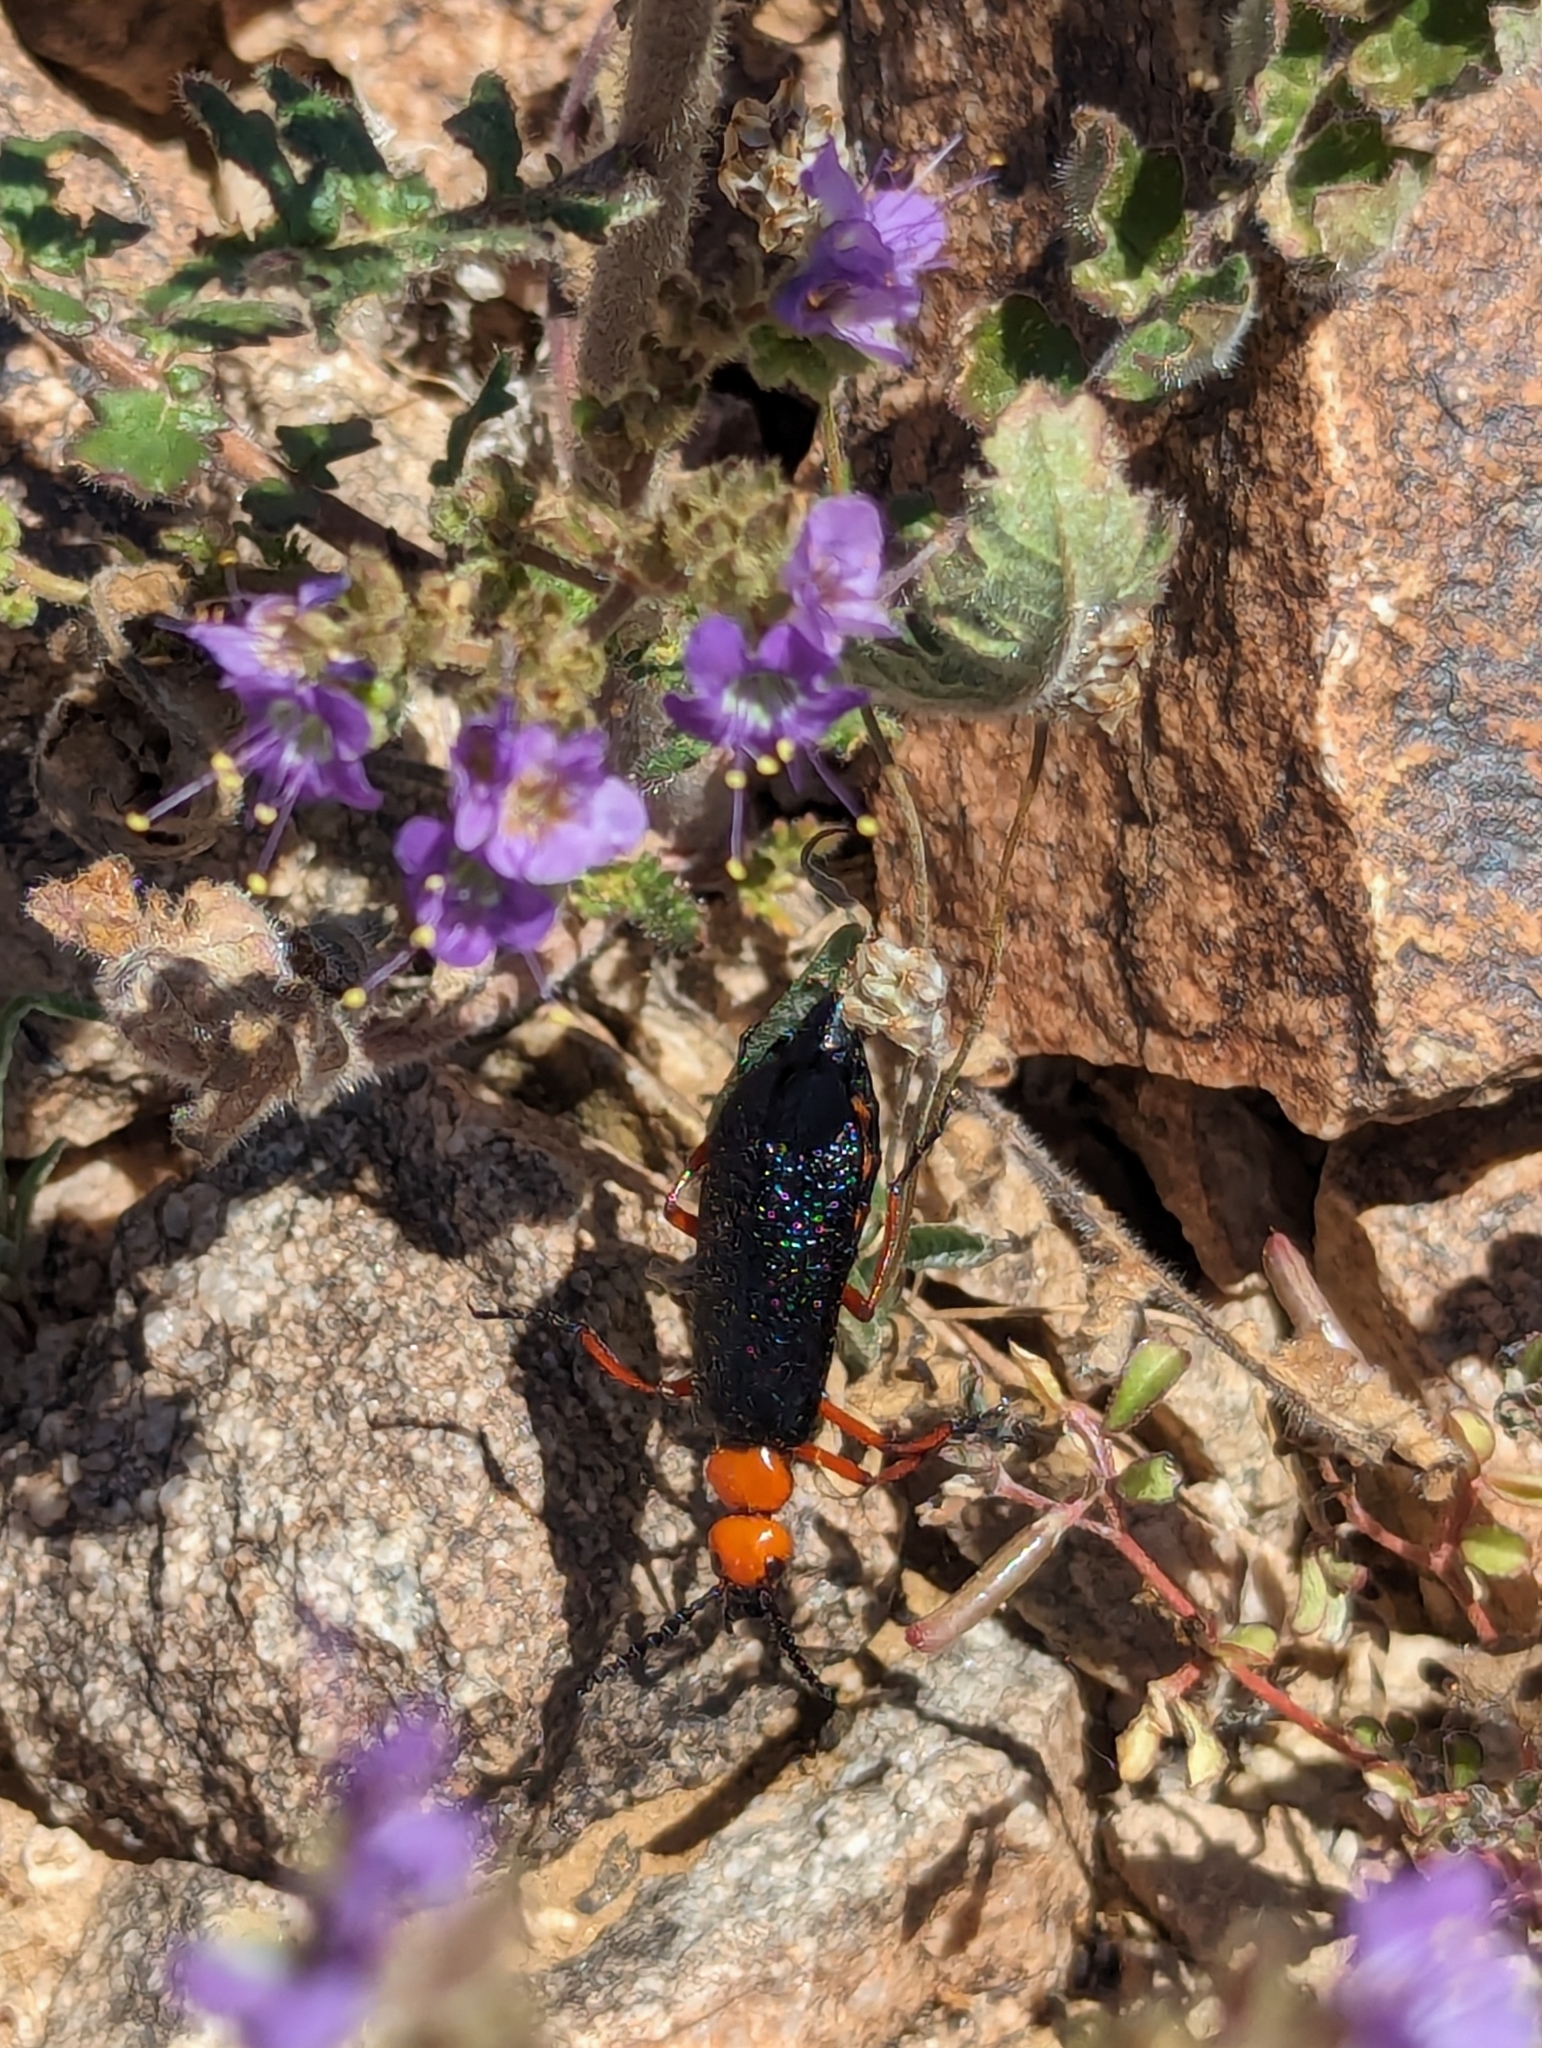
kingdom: Animalia
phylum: Arthropoda
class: Insecta
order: Coleoptera
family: Meloidae
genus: Lytta
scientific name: Lytta magister
